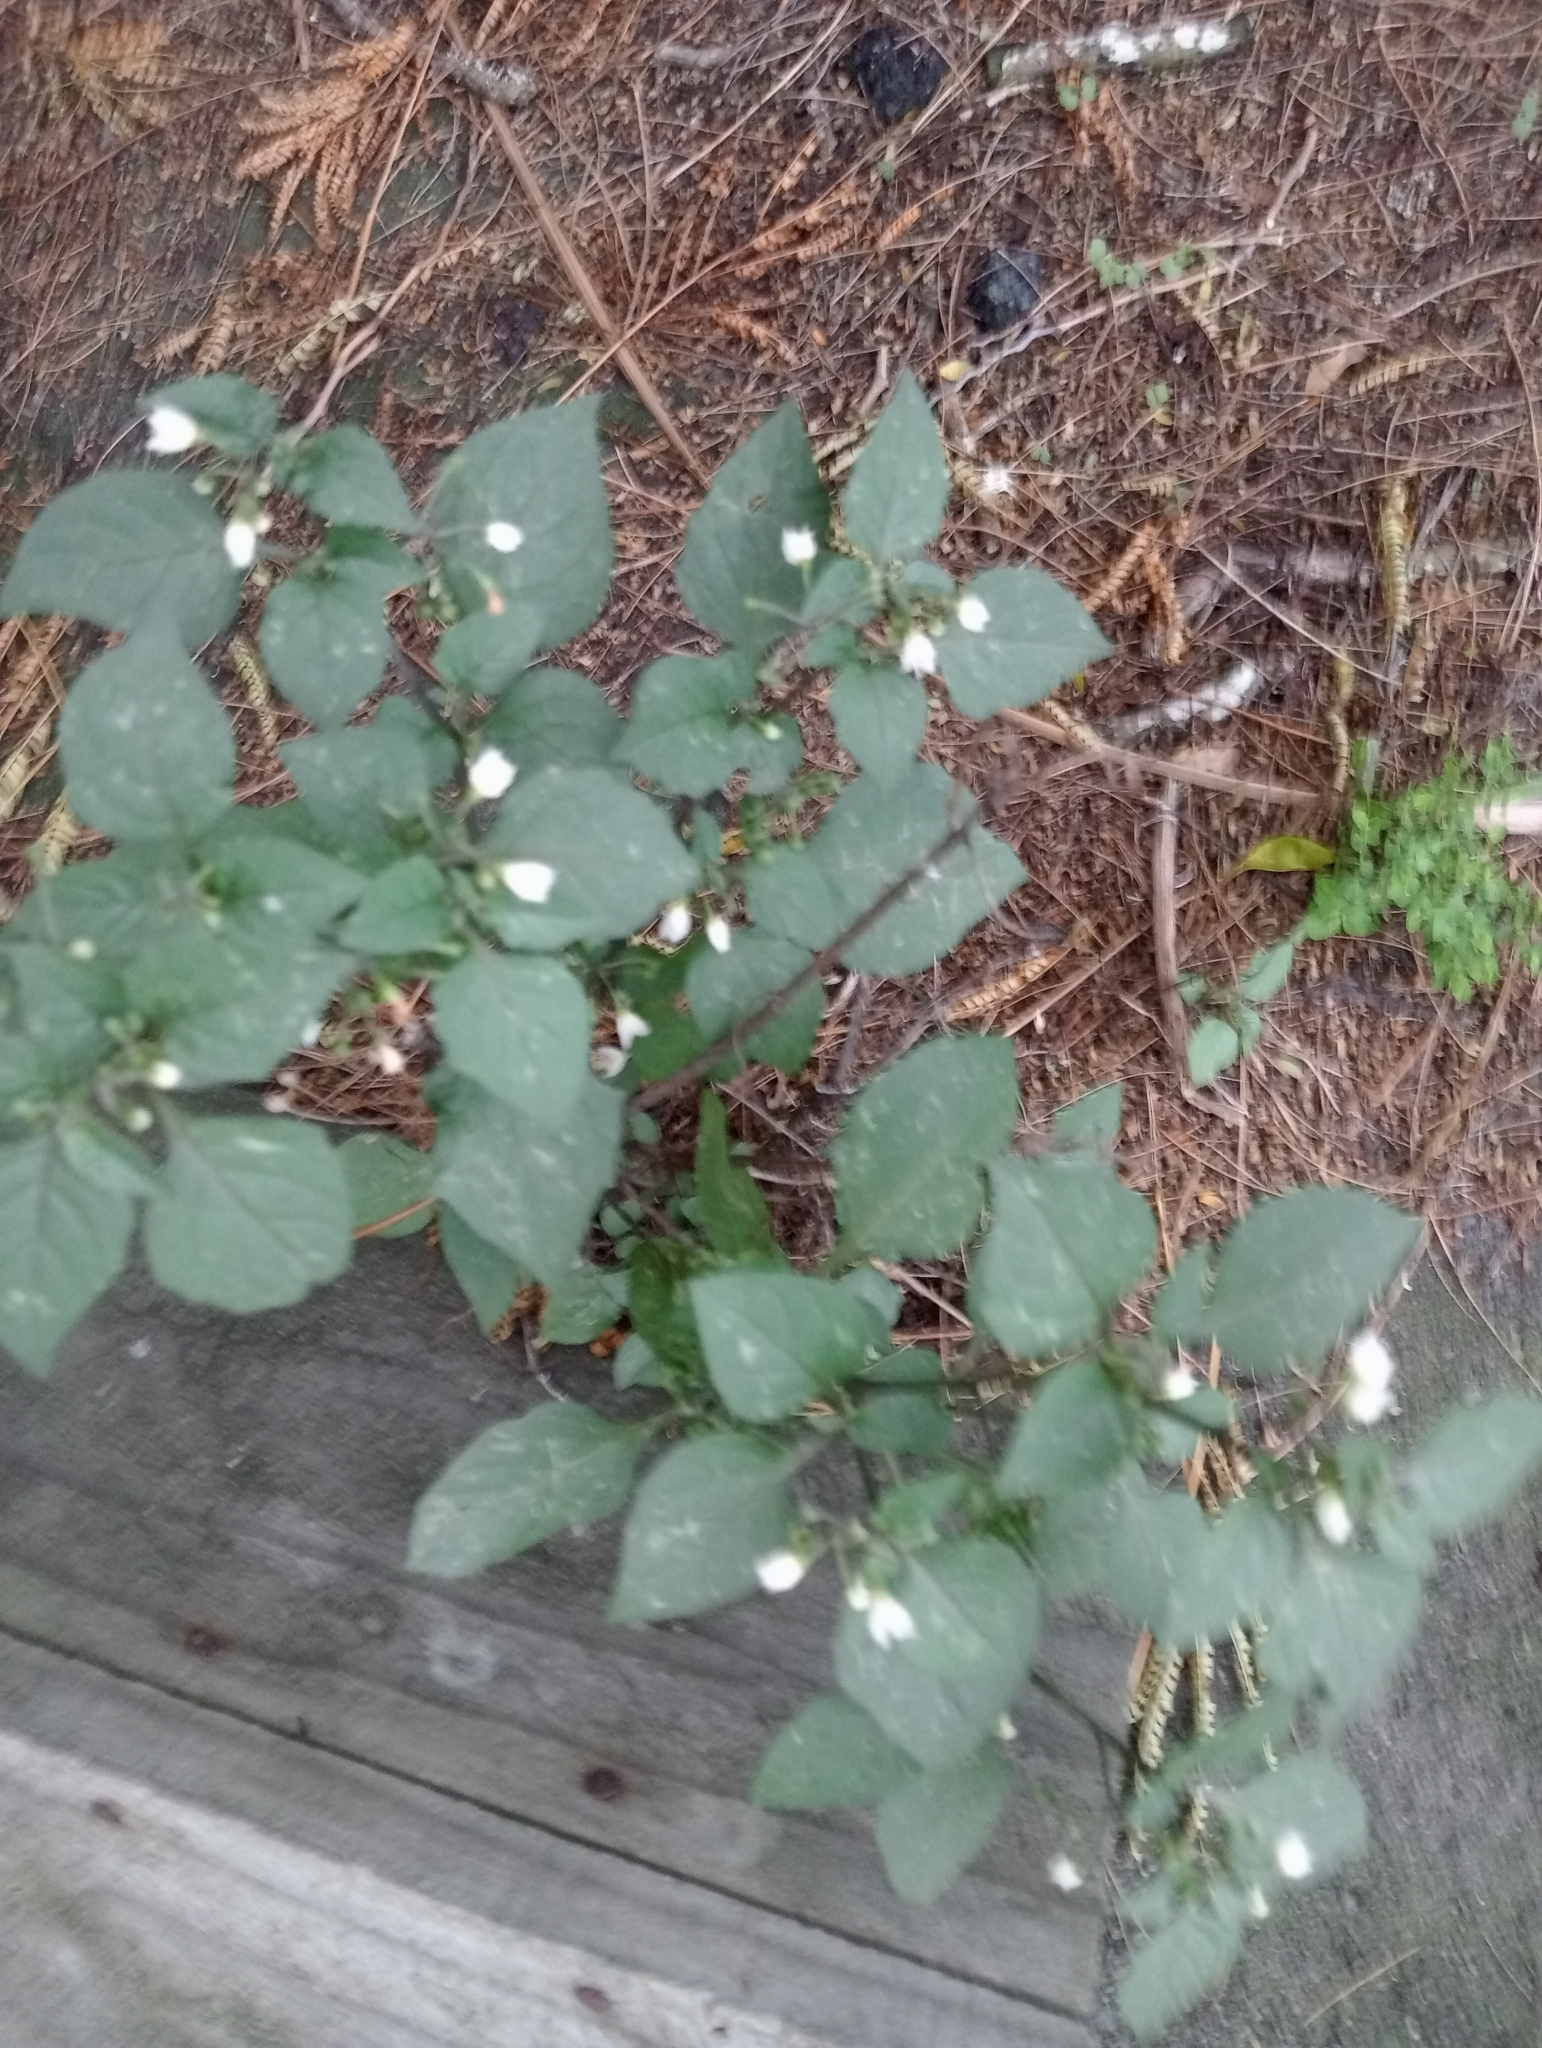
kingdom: Plantae
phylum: Tracheophyta
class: Magnoliopsida
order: Solanales
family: Solanaceae
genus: Solanum
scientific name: Solanum nigrum
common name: Black nightshade
